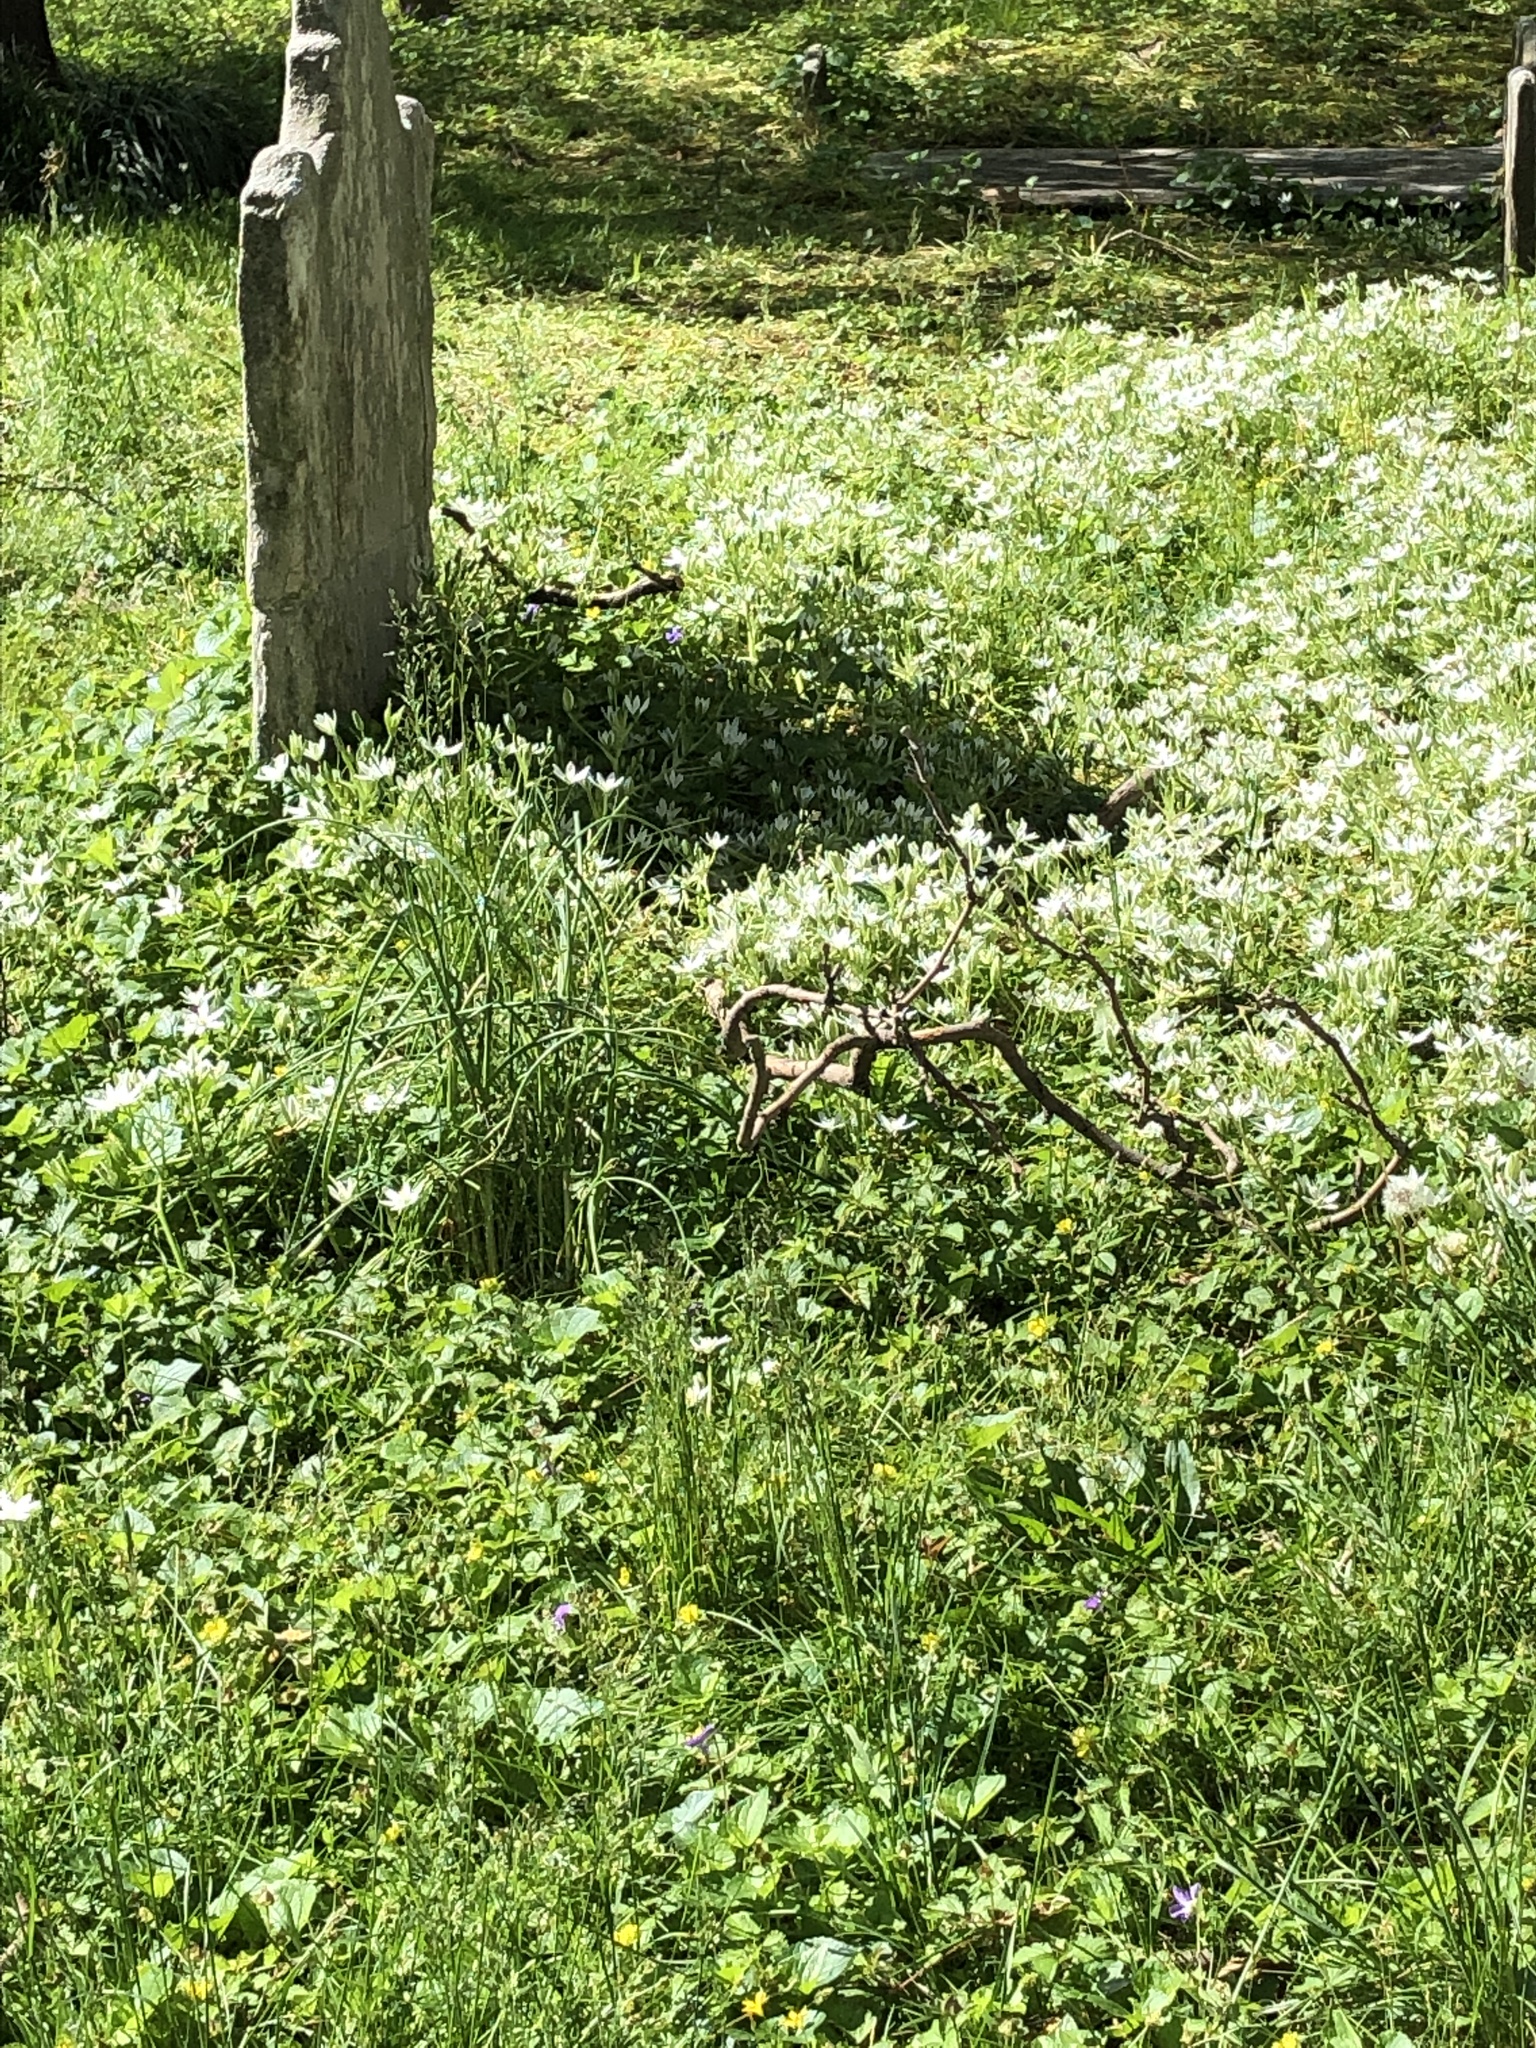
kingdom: Plantae
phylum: Tracheophyta
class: Liliopsida
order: Asparagales
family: Asparagaceae
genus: Ornithogalum
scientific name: Ornithogalum umbellatum
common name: Garden star-of-bethlehem
